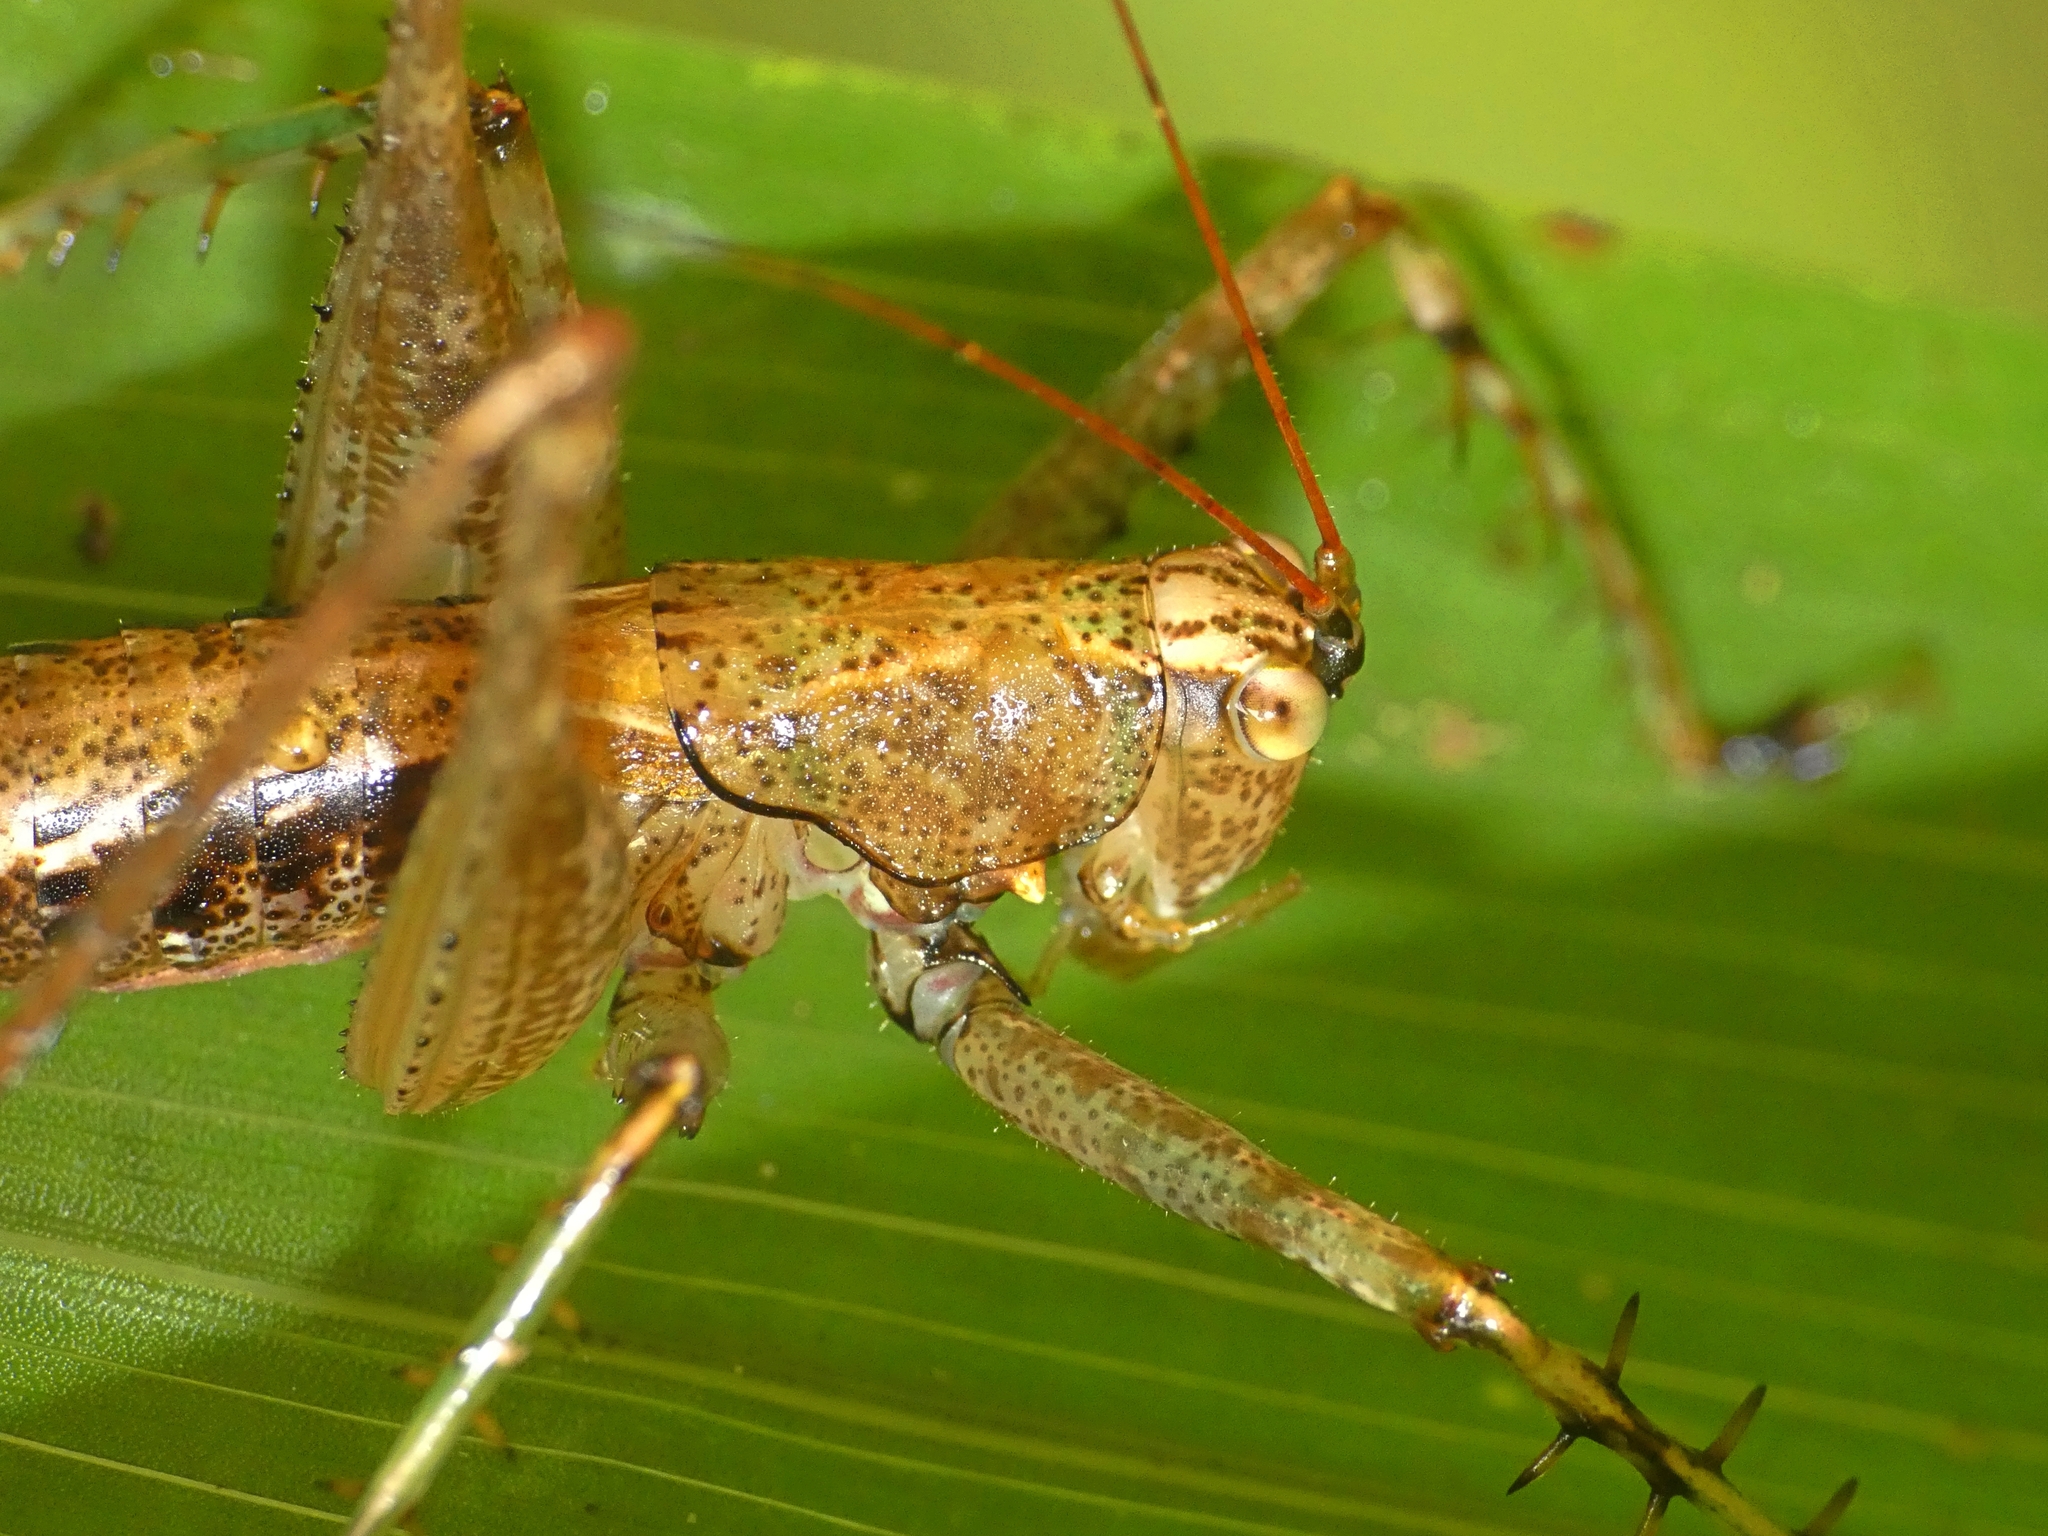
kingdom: Animalia
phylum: Arthropoda
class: Insecta
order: Orthoptera
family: Tettigoniidae
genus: Xingbaoia
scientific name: Xingbaoia karakara
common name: Jin's ginger katydid
